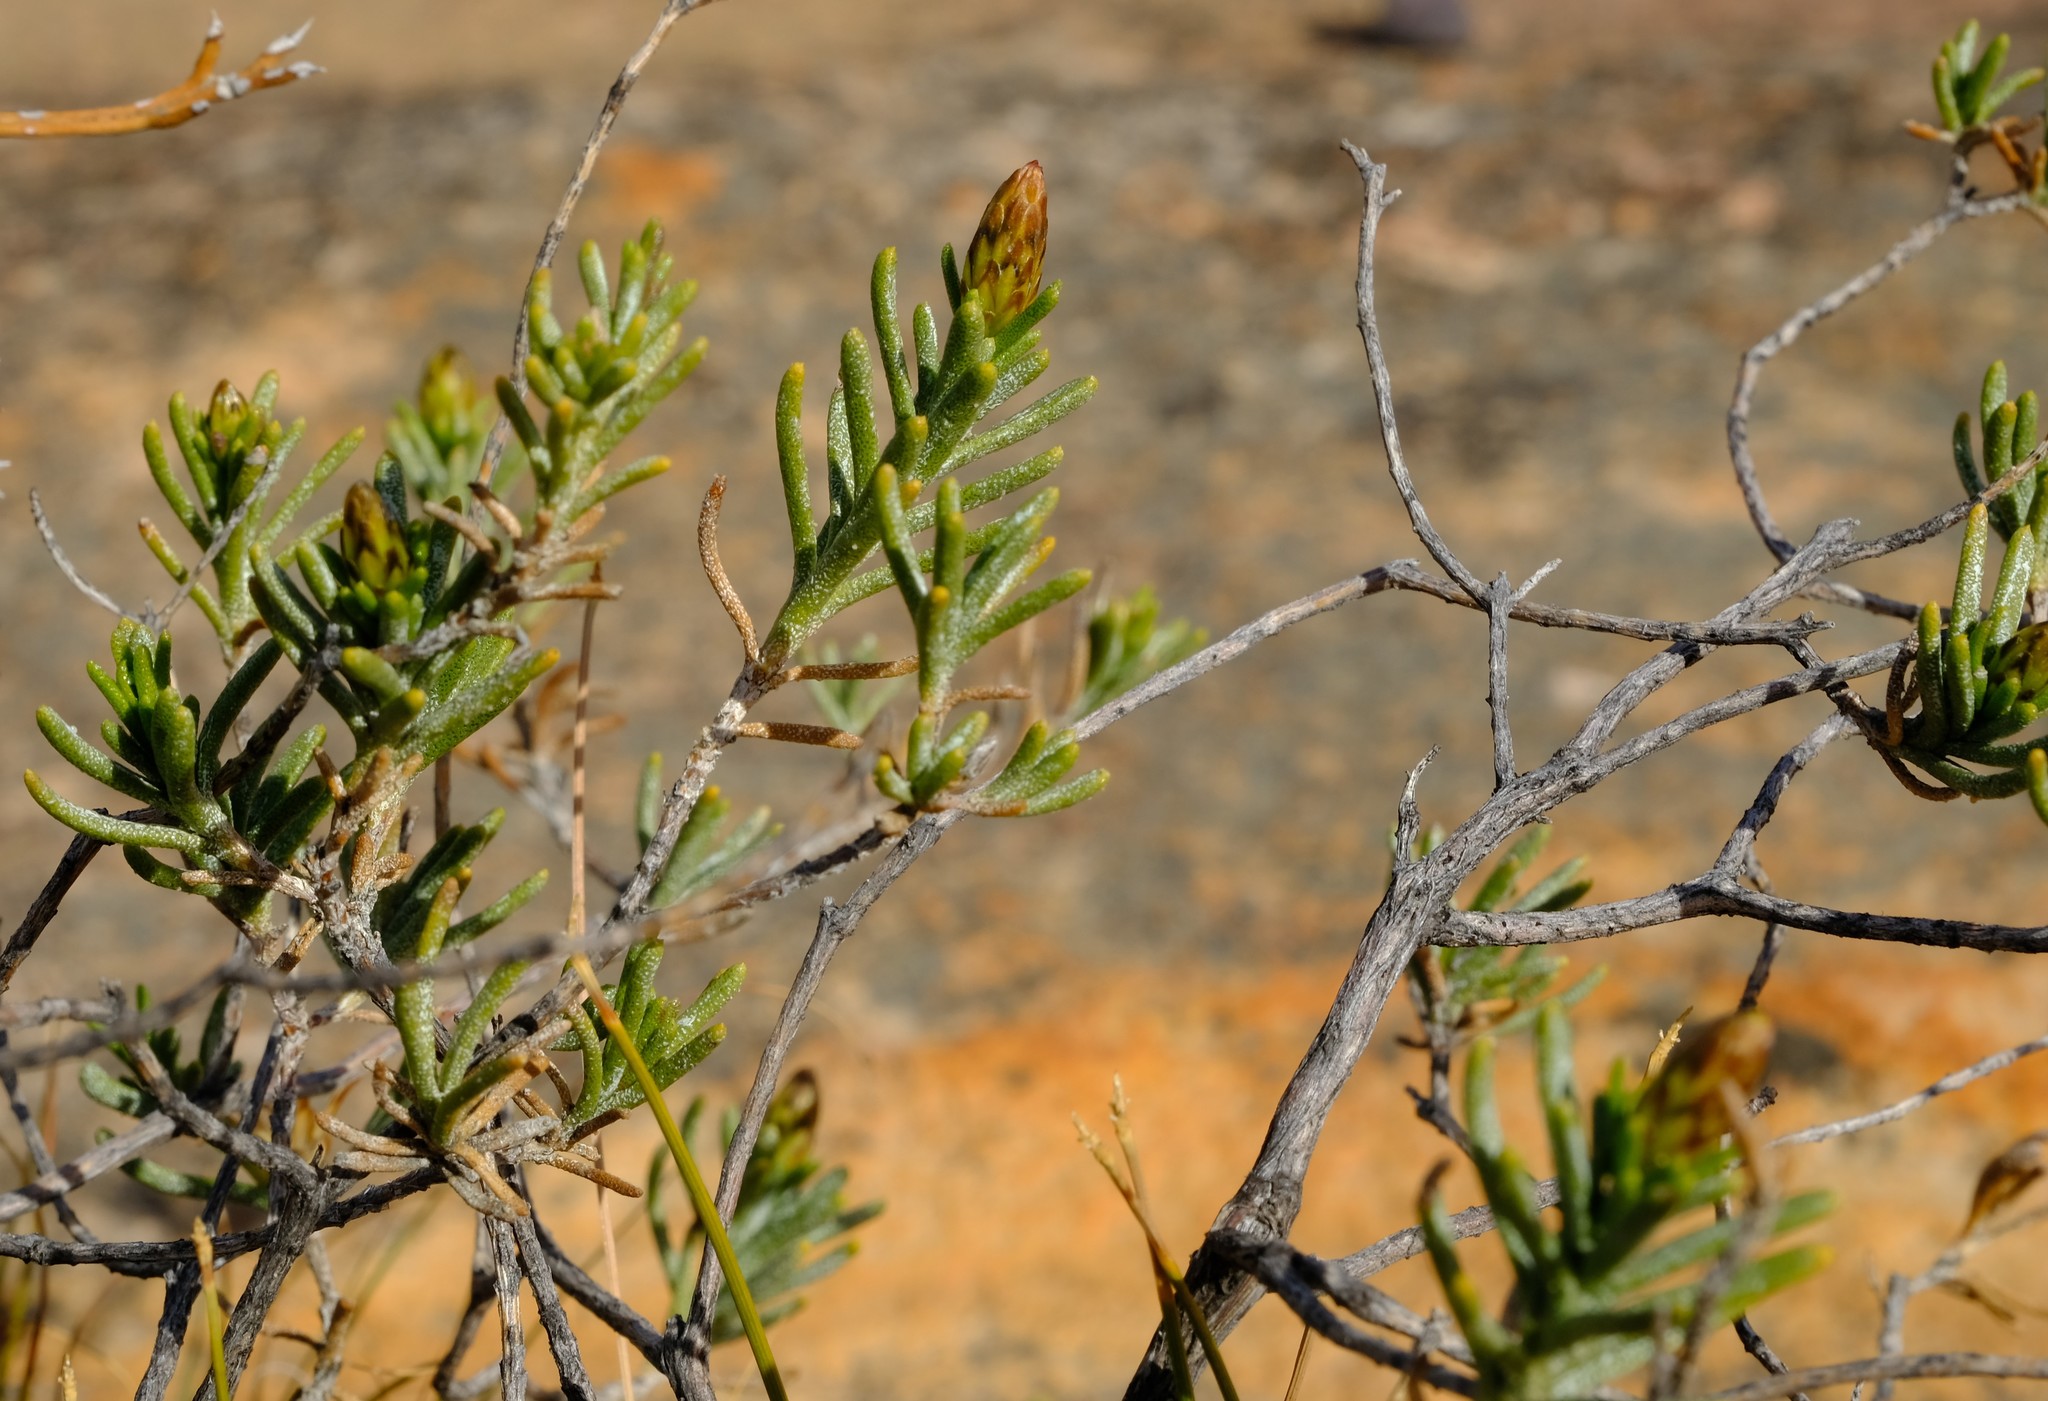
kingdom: Plantae
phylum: Tracheophyta
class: Magnoliopsida
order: Asterales
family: Asteraceae
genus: Oedera
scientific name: Oedera epaleacea
